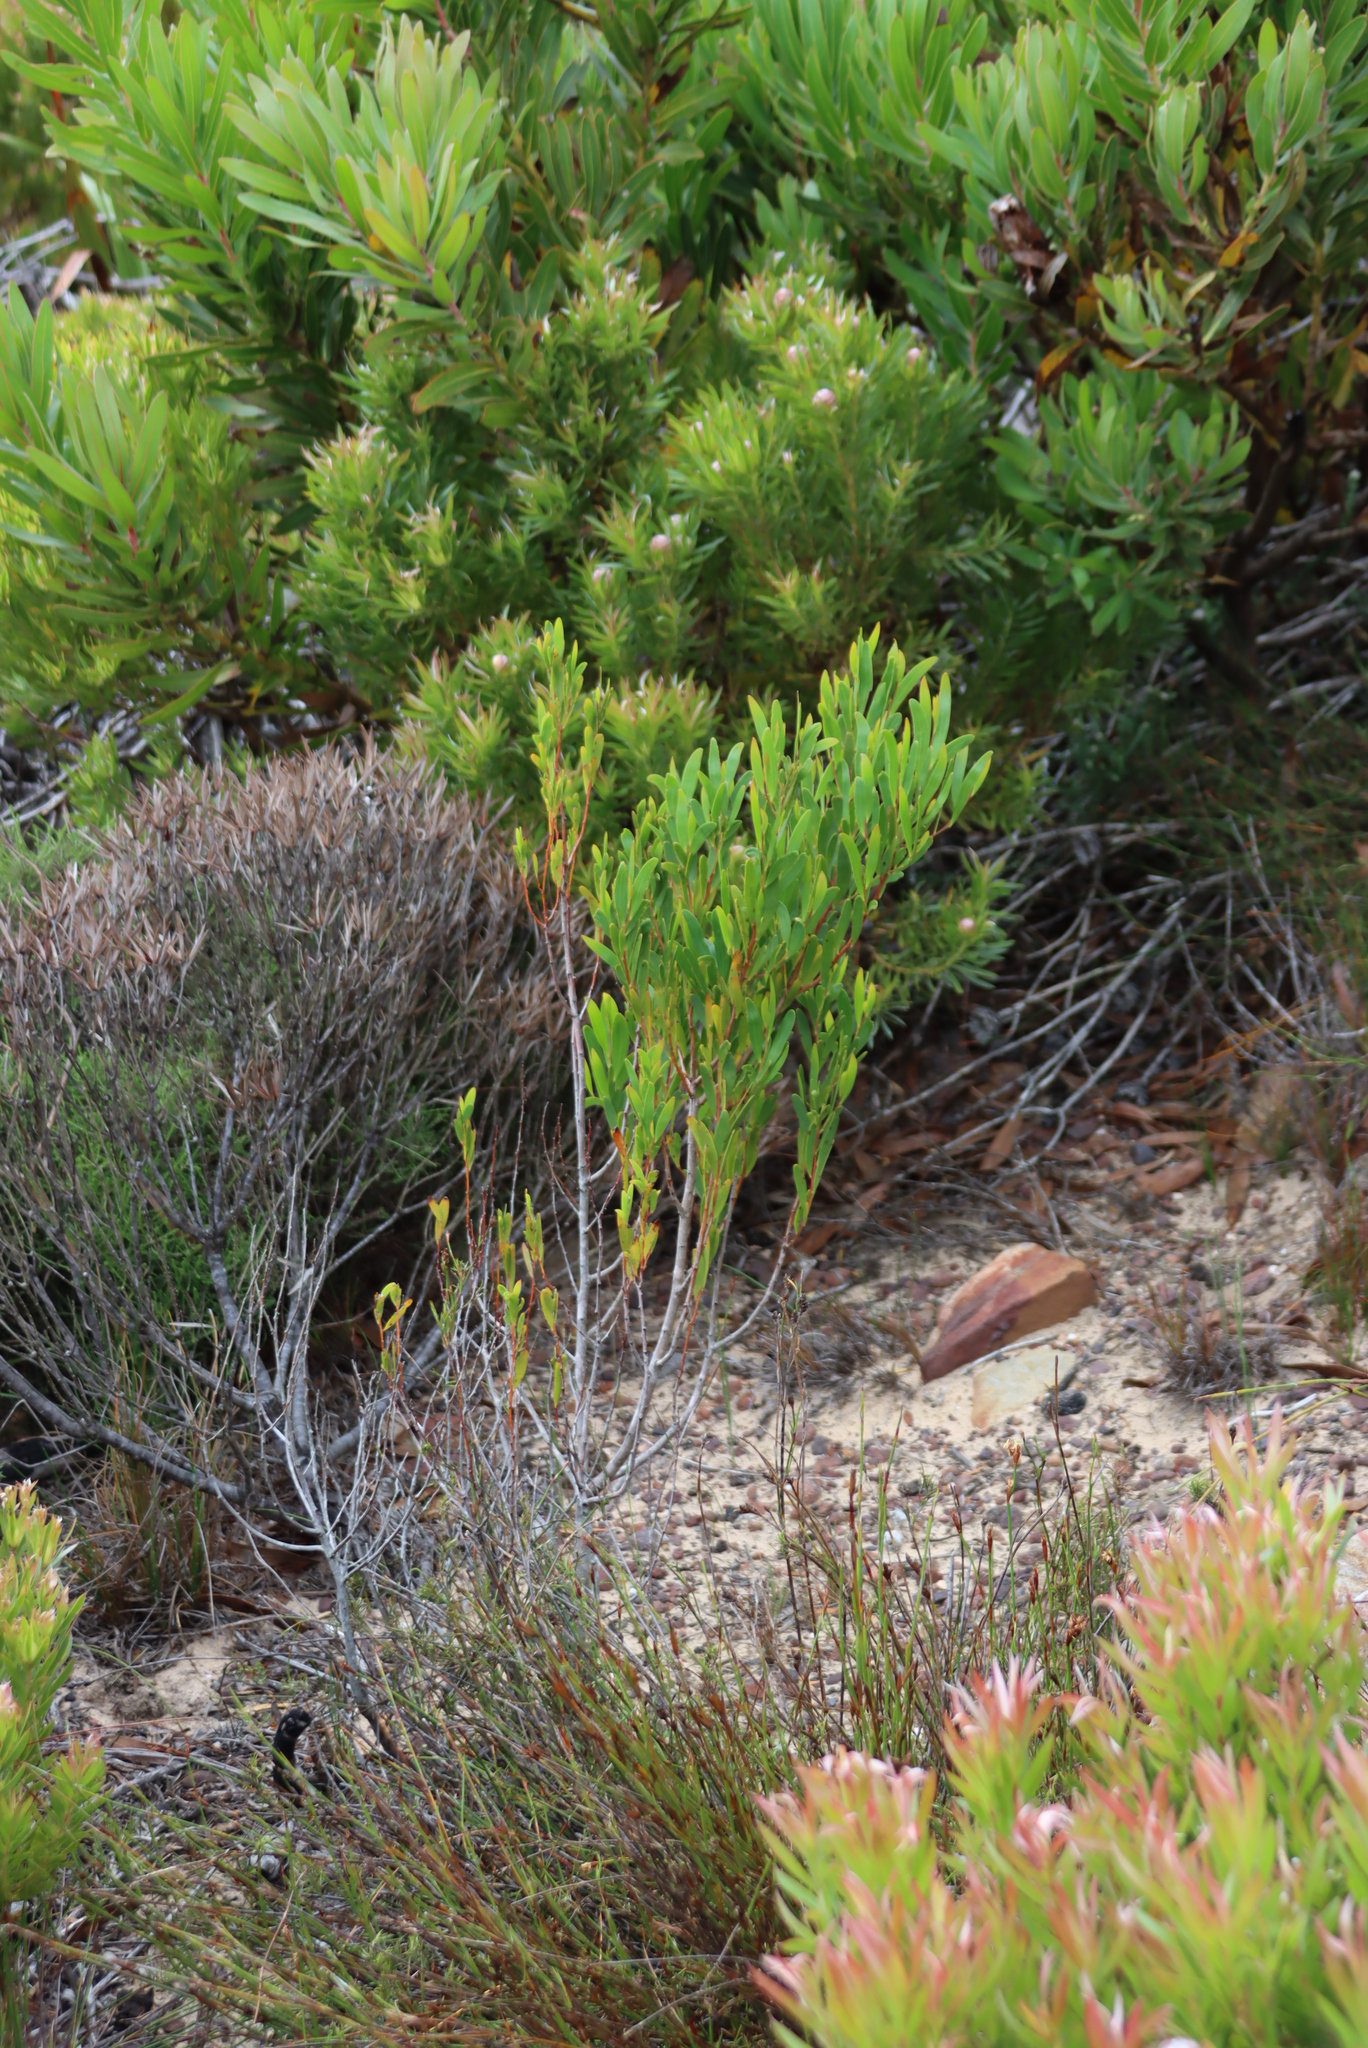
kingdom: Plantae
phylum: Tracheophyta
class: Magnoliopsida
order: Fabales
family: Fabaceae
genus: Acacia
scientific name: Acacia cyclops
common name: Coastal wattle
